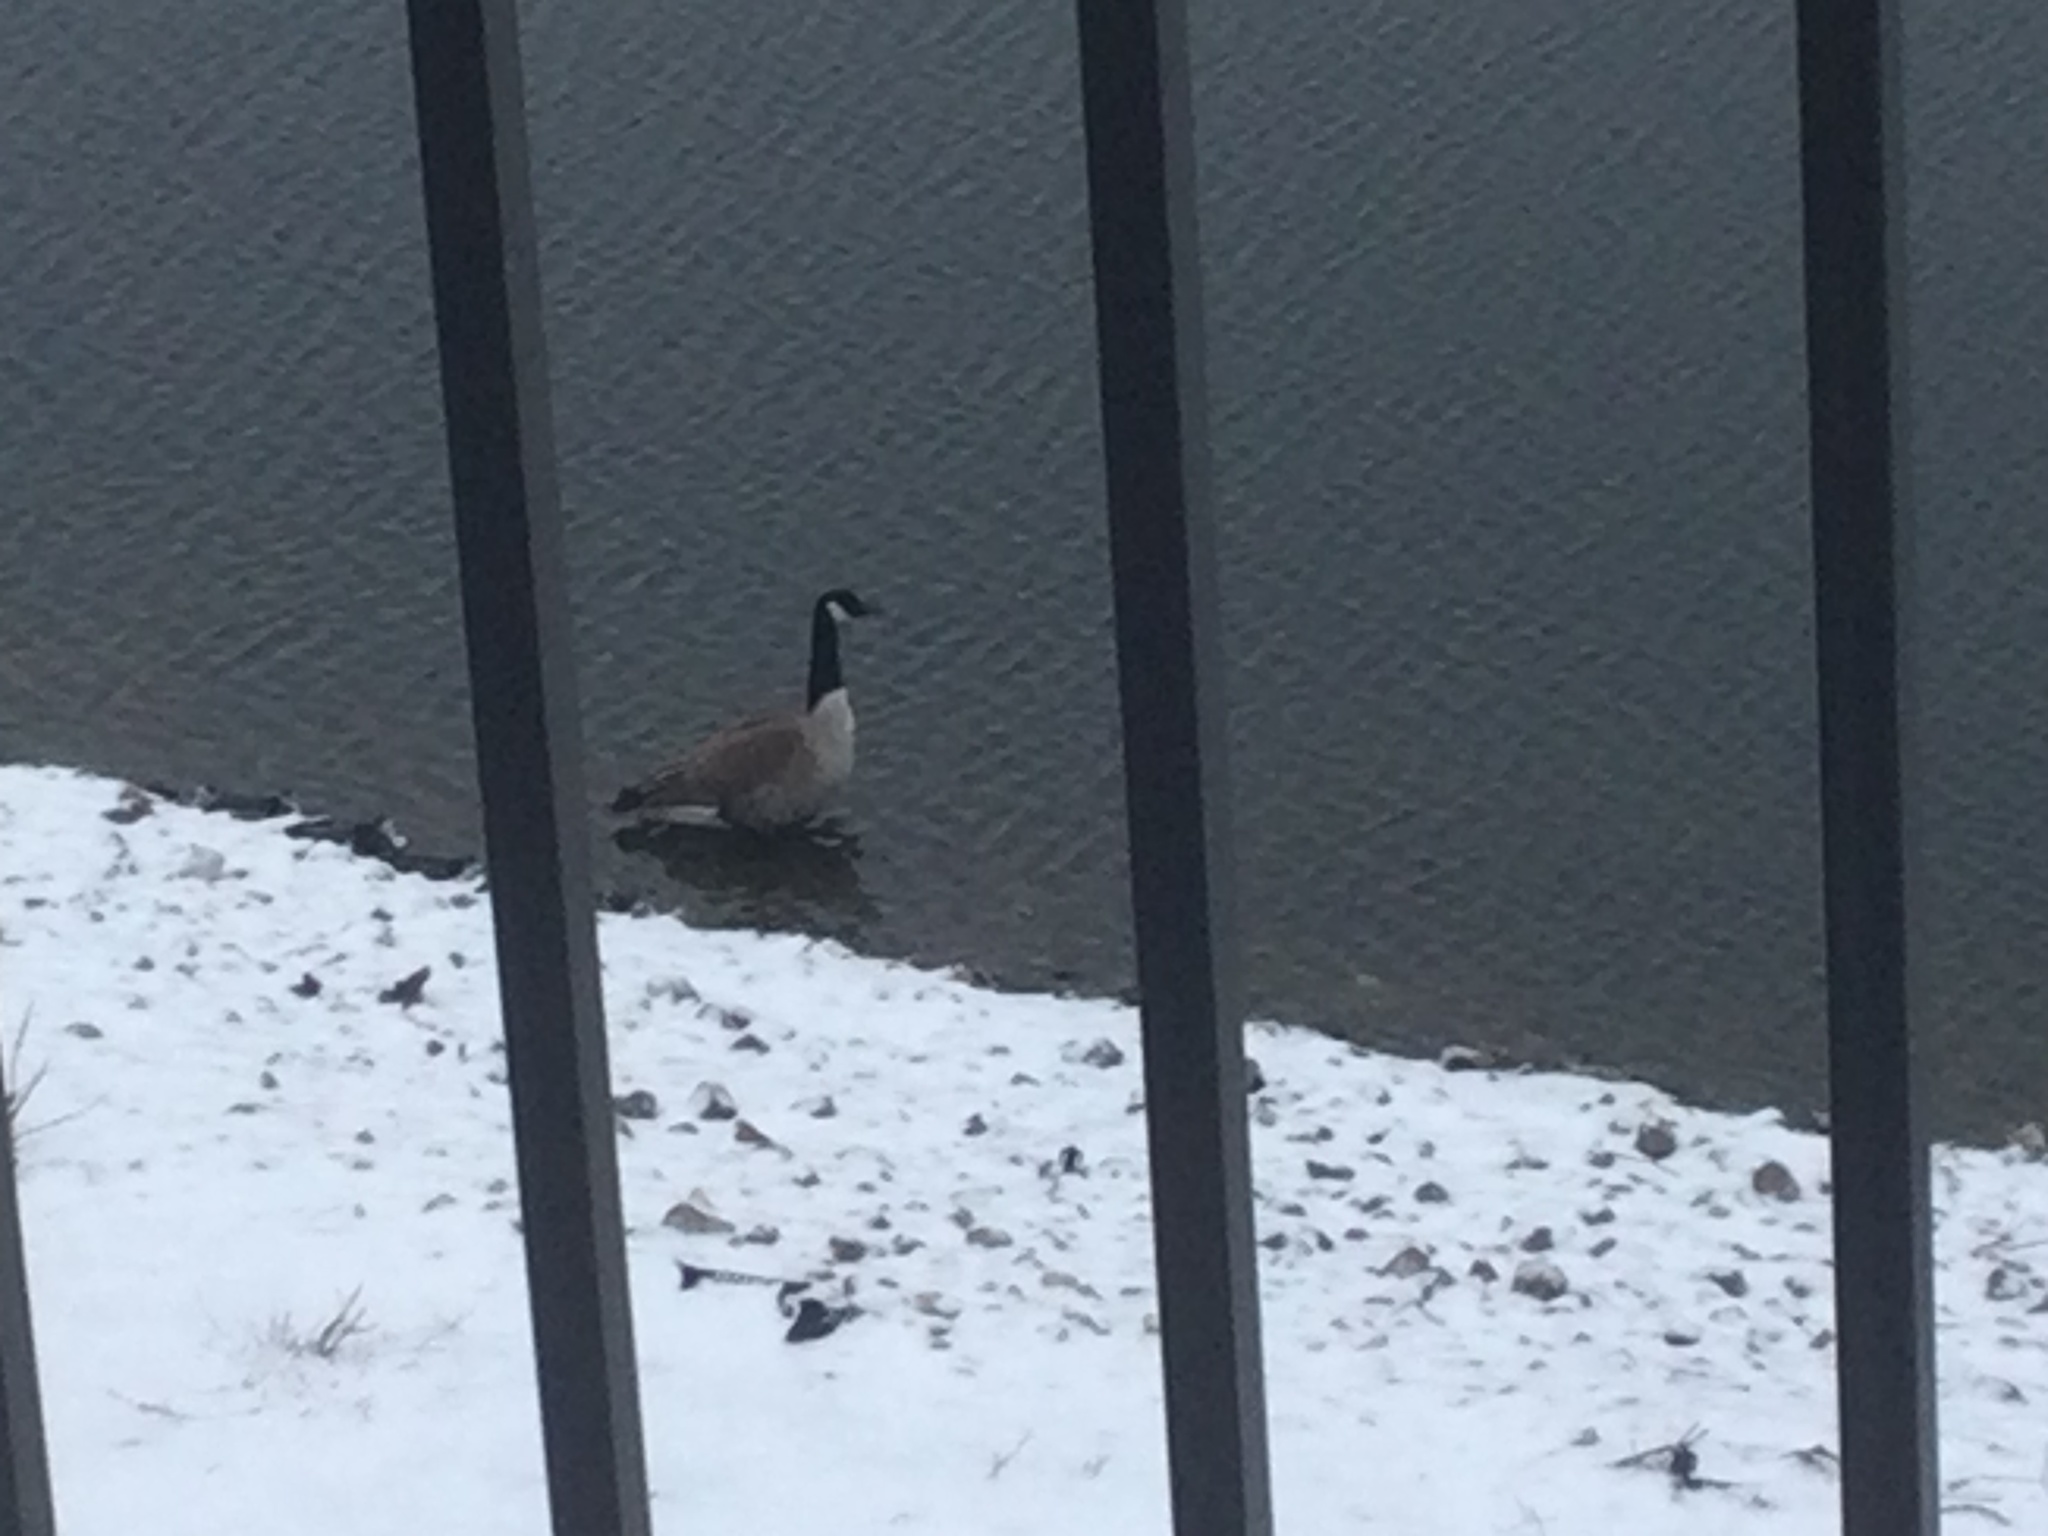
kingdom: Animalia
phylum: Chordata
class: Aves
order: Anseriformes
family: Anatidae
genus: Branta
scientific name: Branta canadensis
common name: Canada goose
